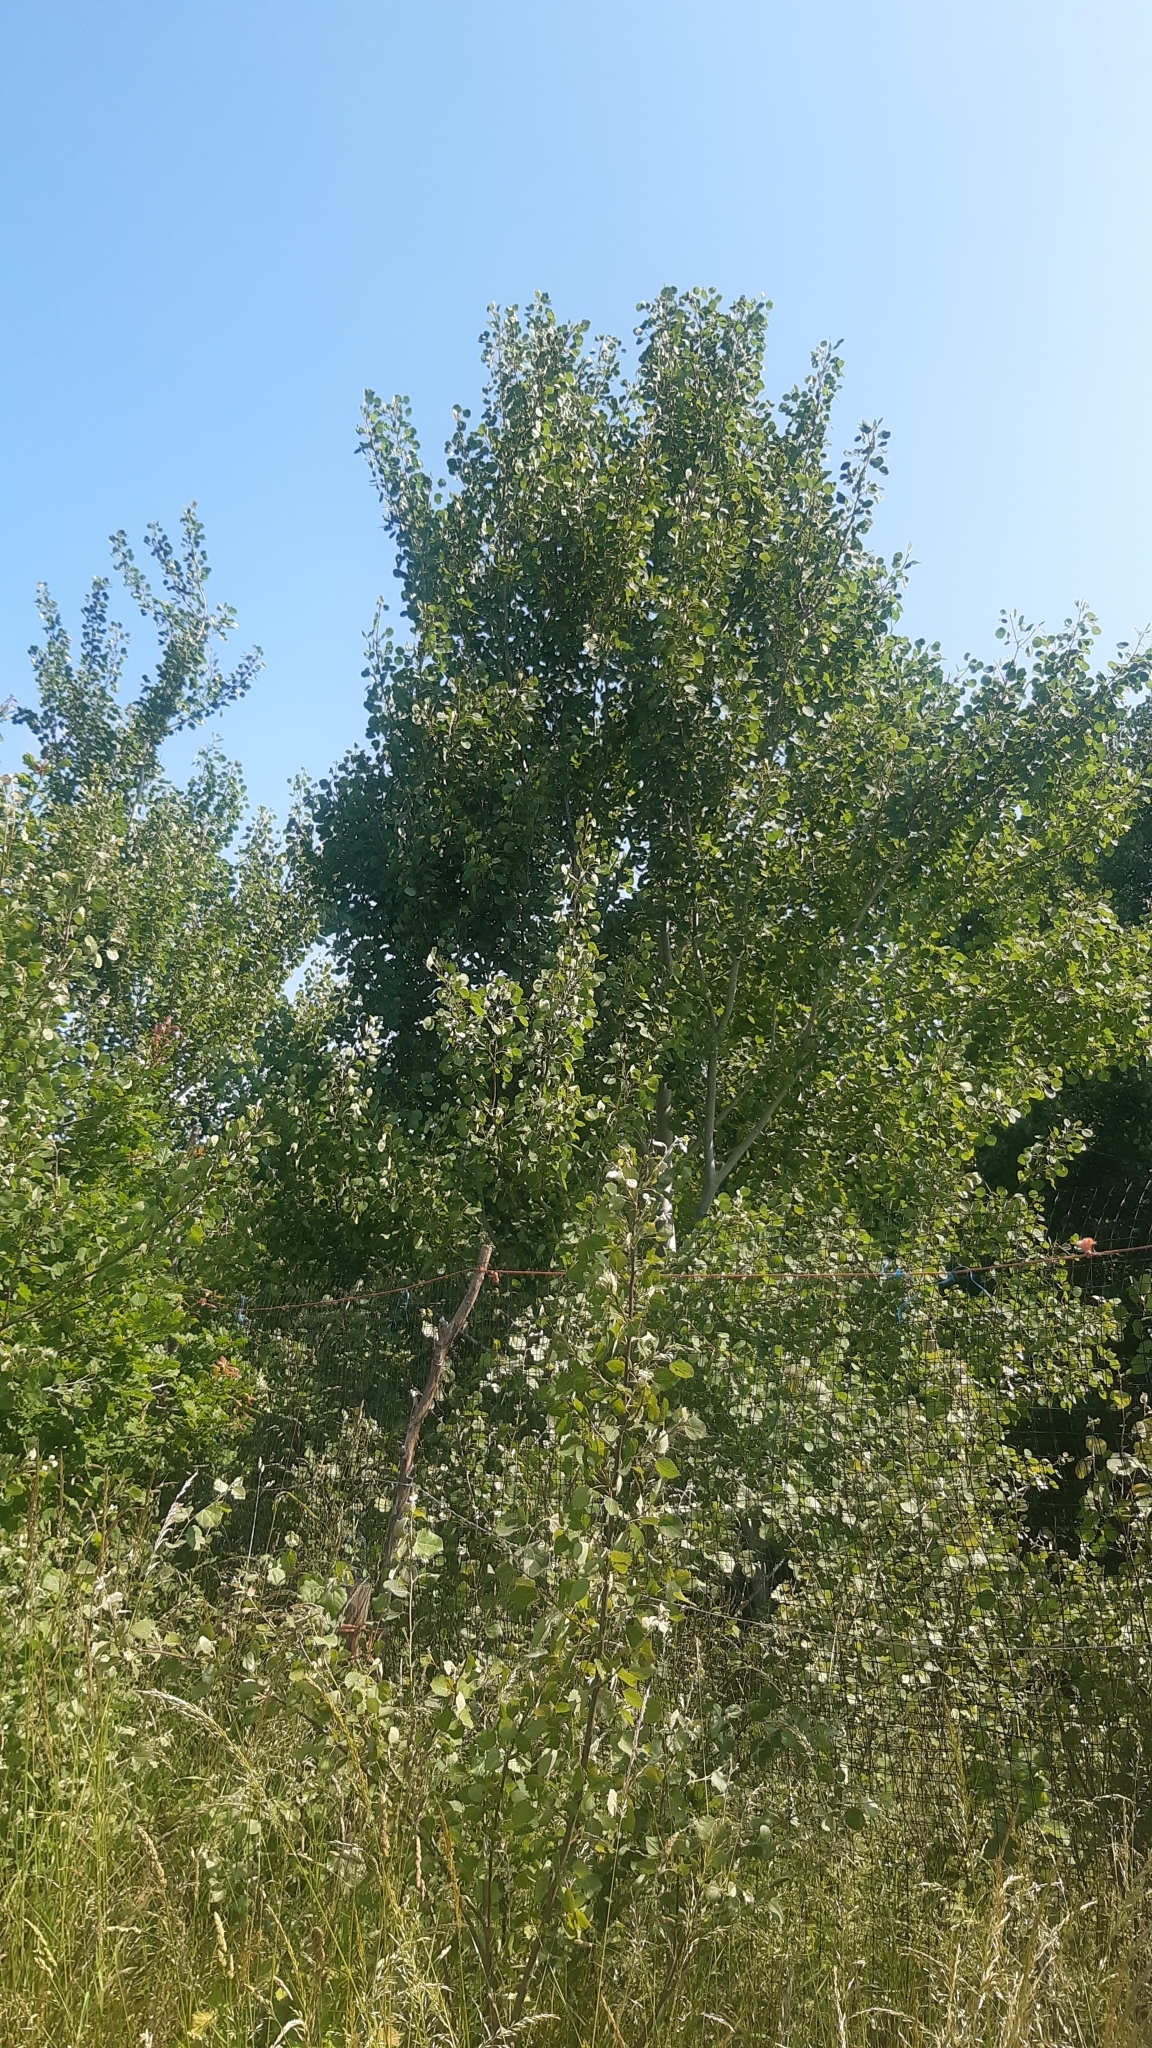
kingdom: Plantae
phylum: Tracheophyta
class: Magnoliopsida
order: Malpighiales
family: Salicaceae
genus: Populus
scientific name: Populus tremula
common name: European aspen
